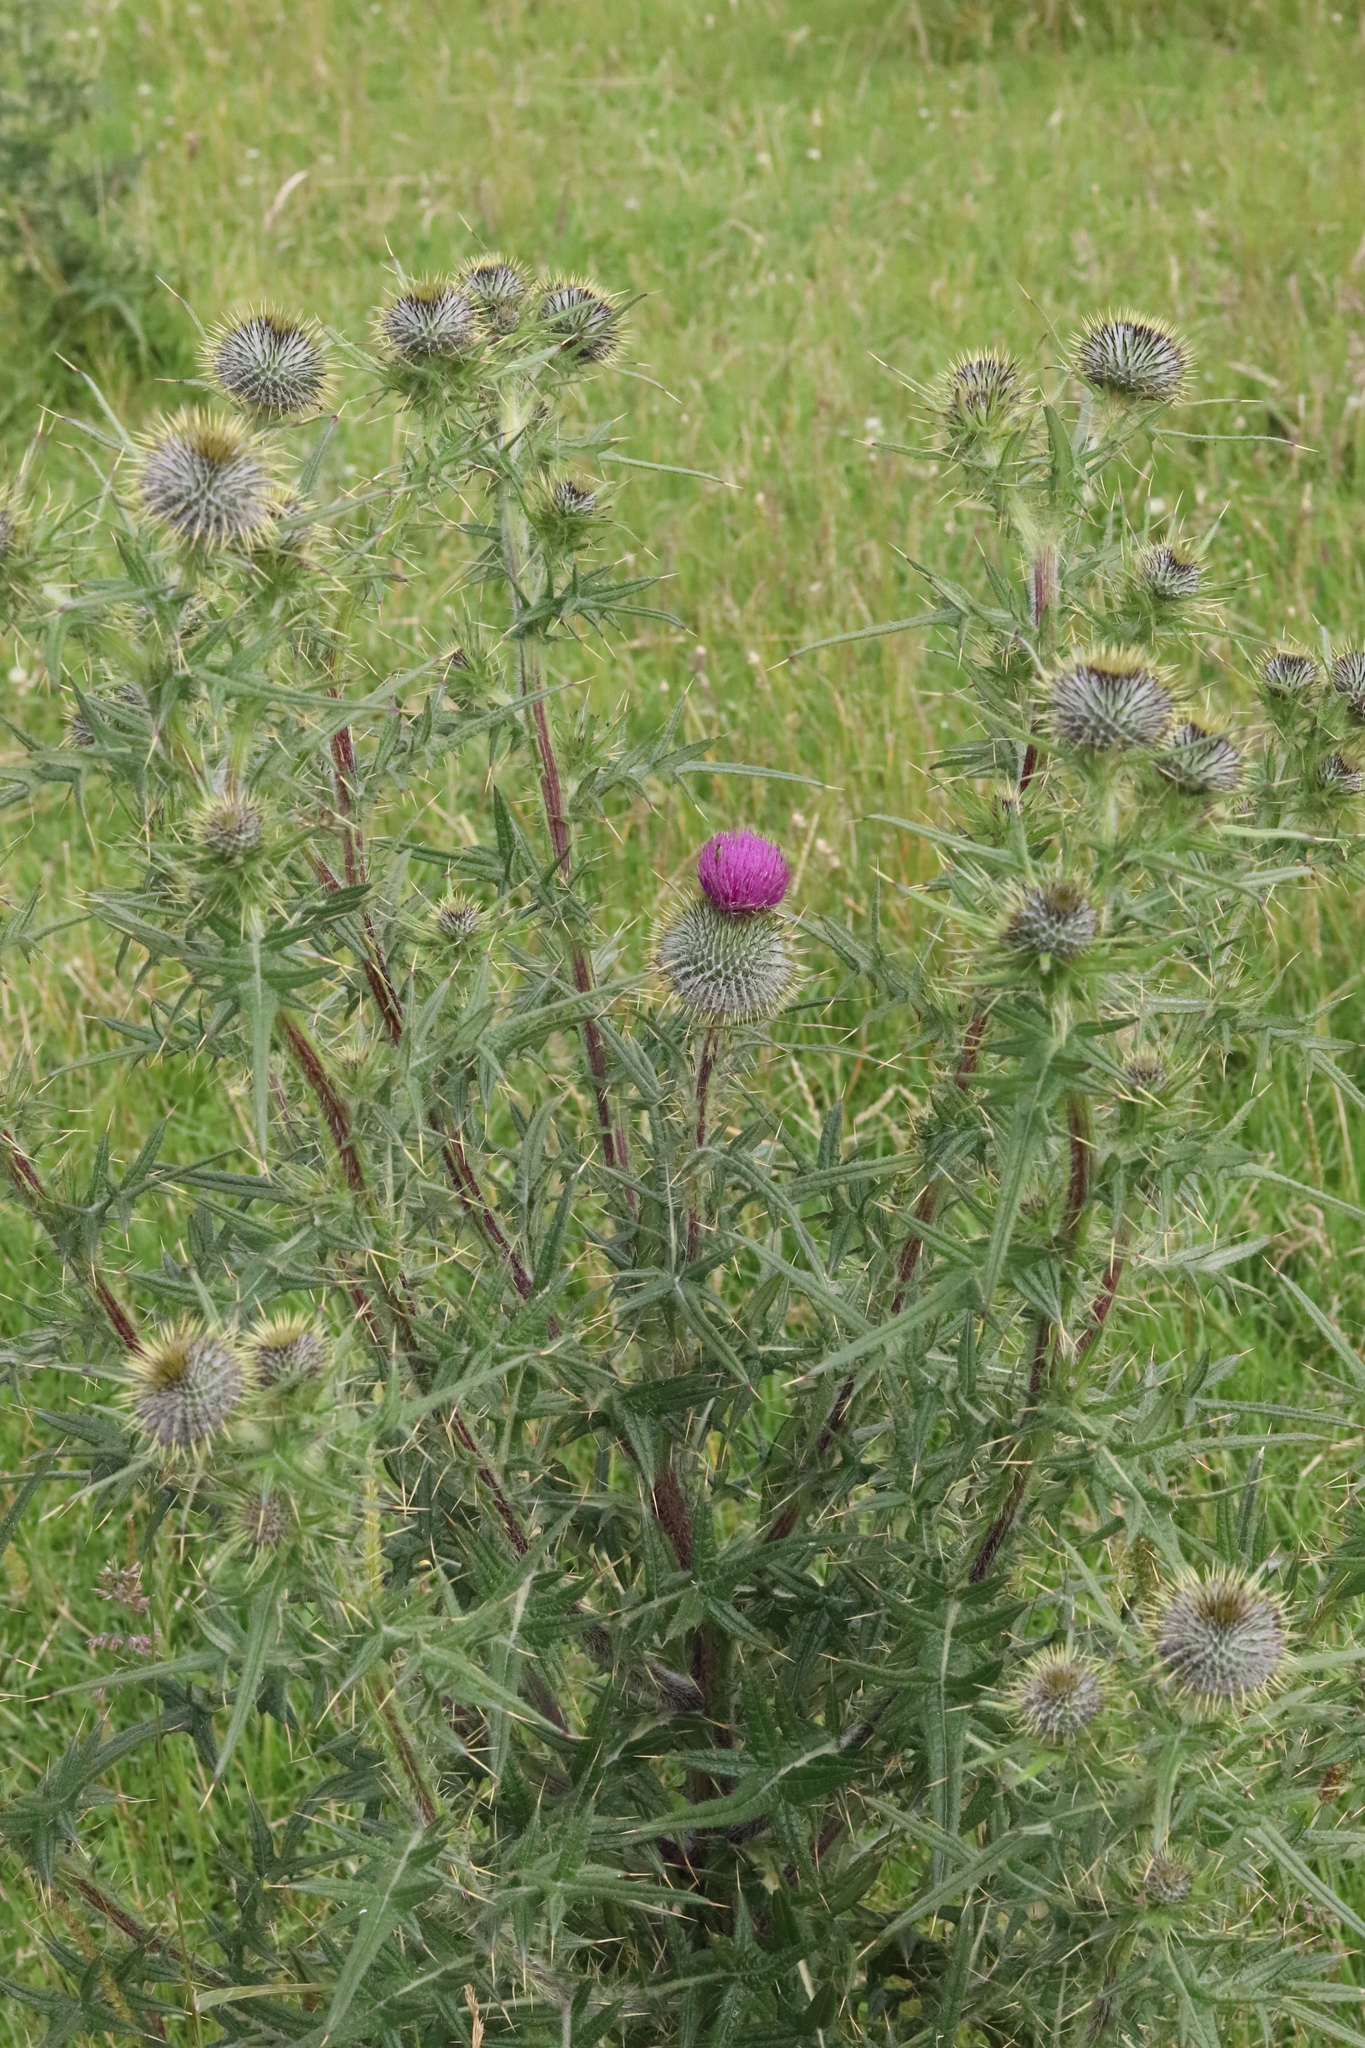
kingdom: Plantae
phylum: Tracheophyta
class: Magnoliopsida
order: Asterales
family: Asteraceae
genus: Cirsium
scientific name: Cirsium vulgare
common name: Bull thistle
